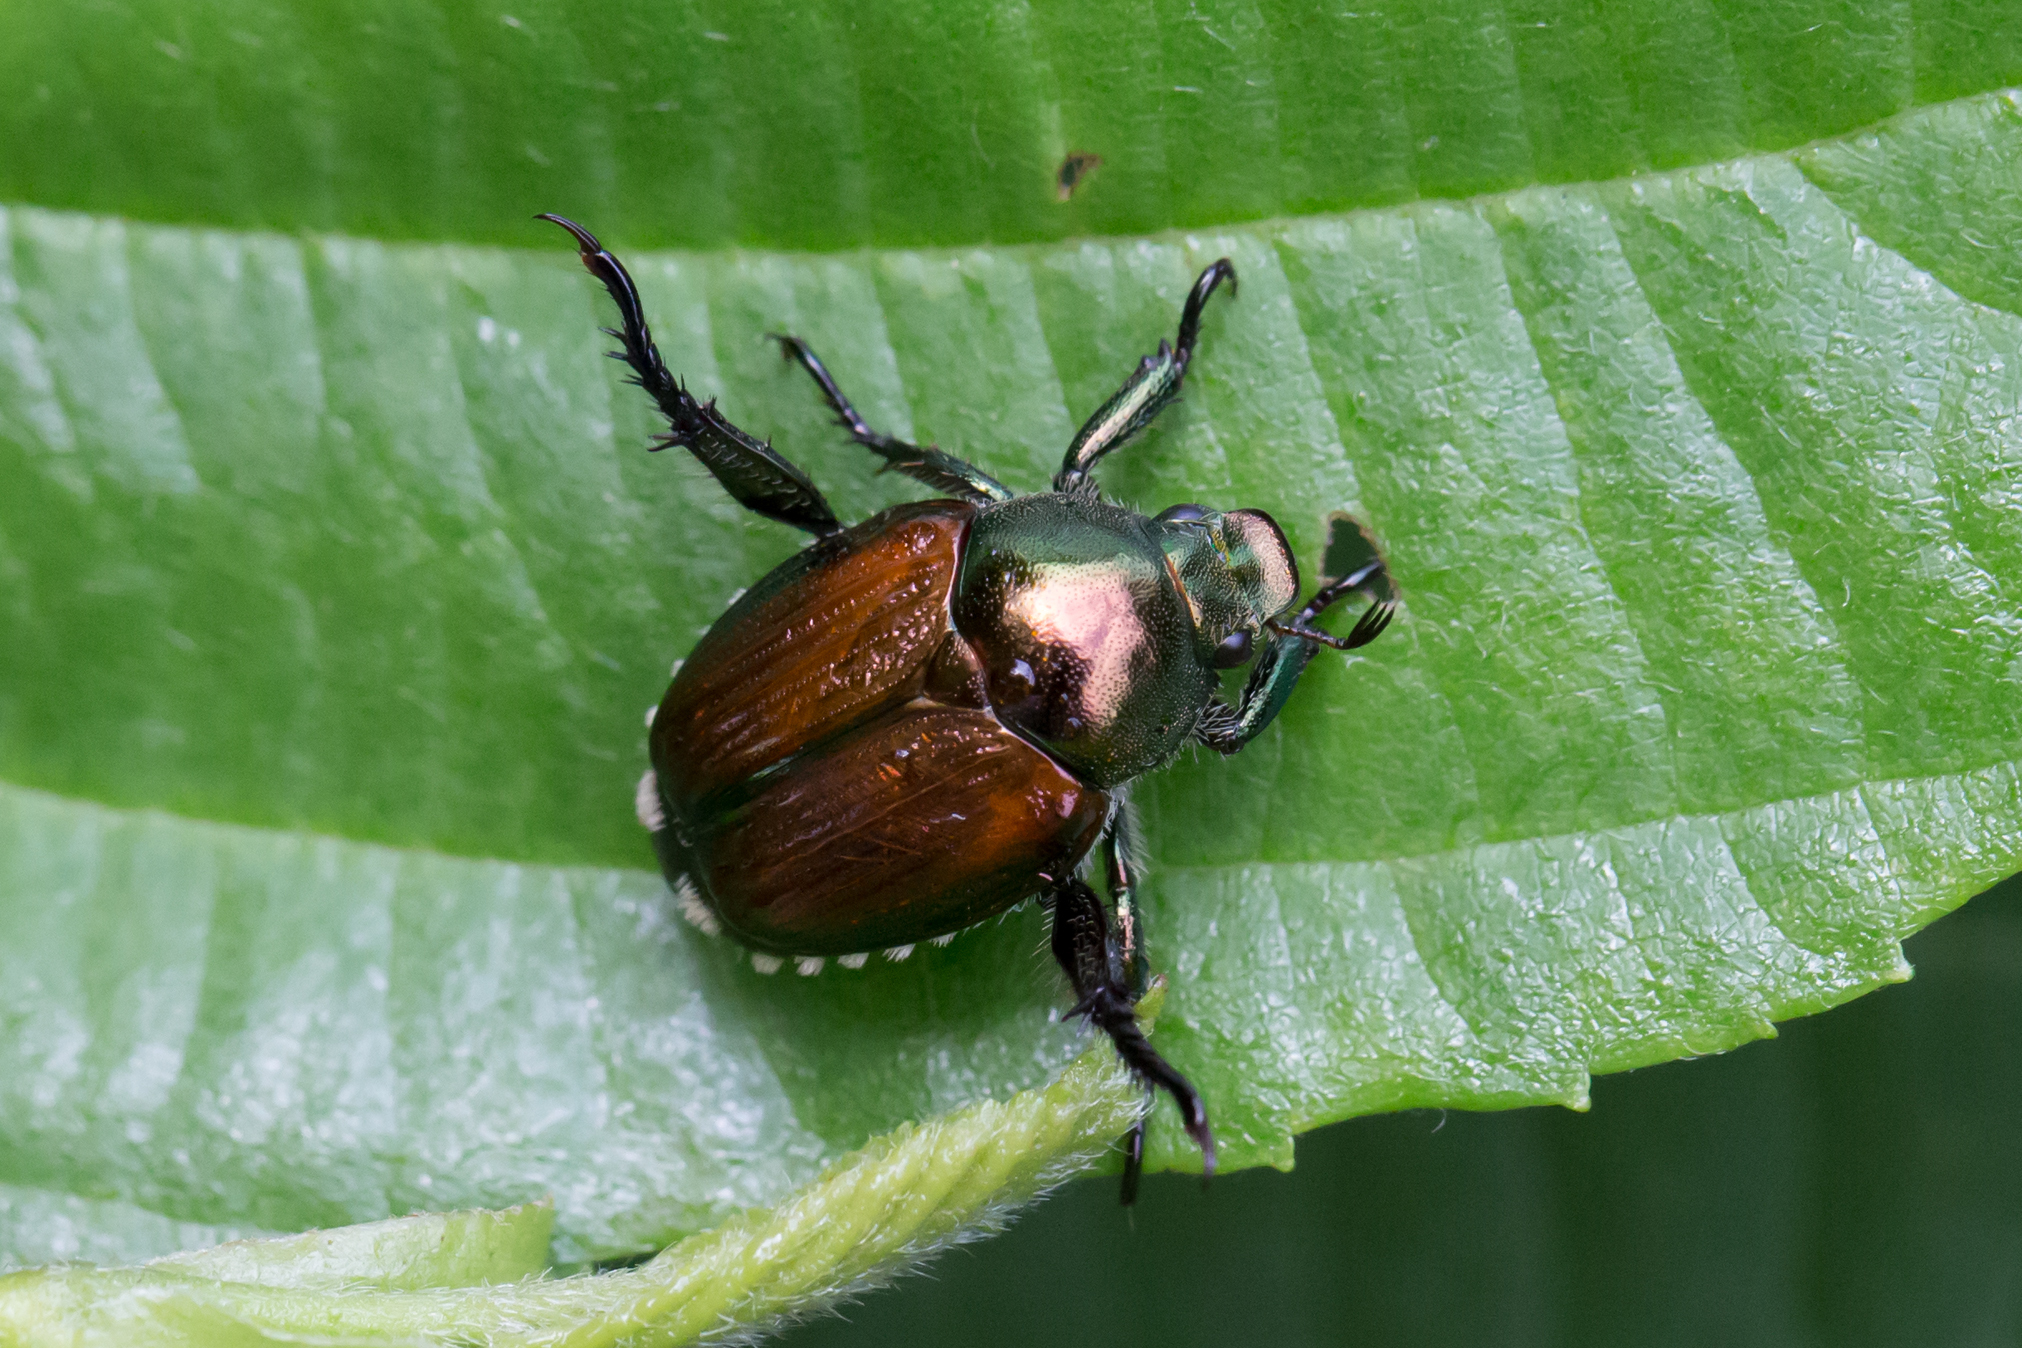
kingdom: Animalia
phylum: Arthropoda
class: Insecta
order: Coleoptera
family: Scarabaeidae
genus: Popillia
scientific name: Popillia japonica
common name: Japanese beetle
